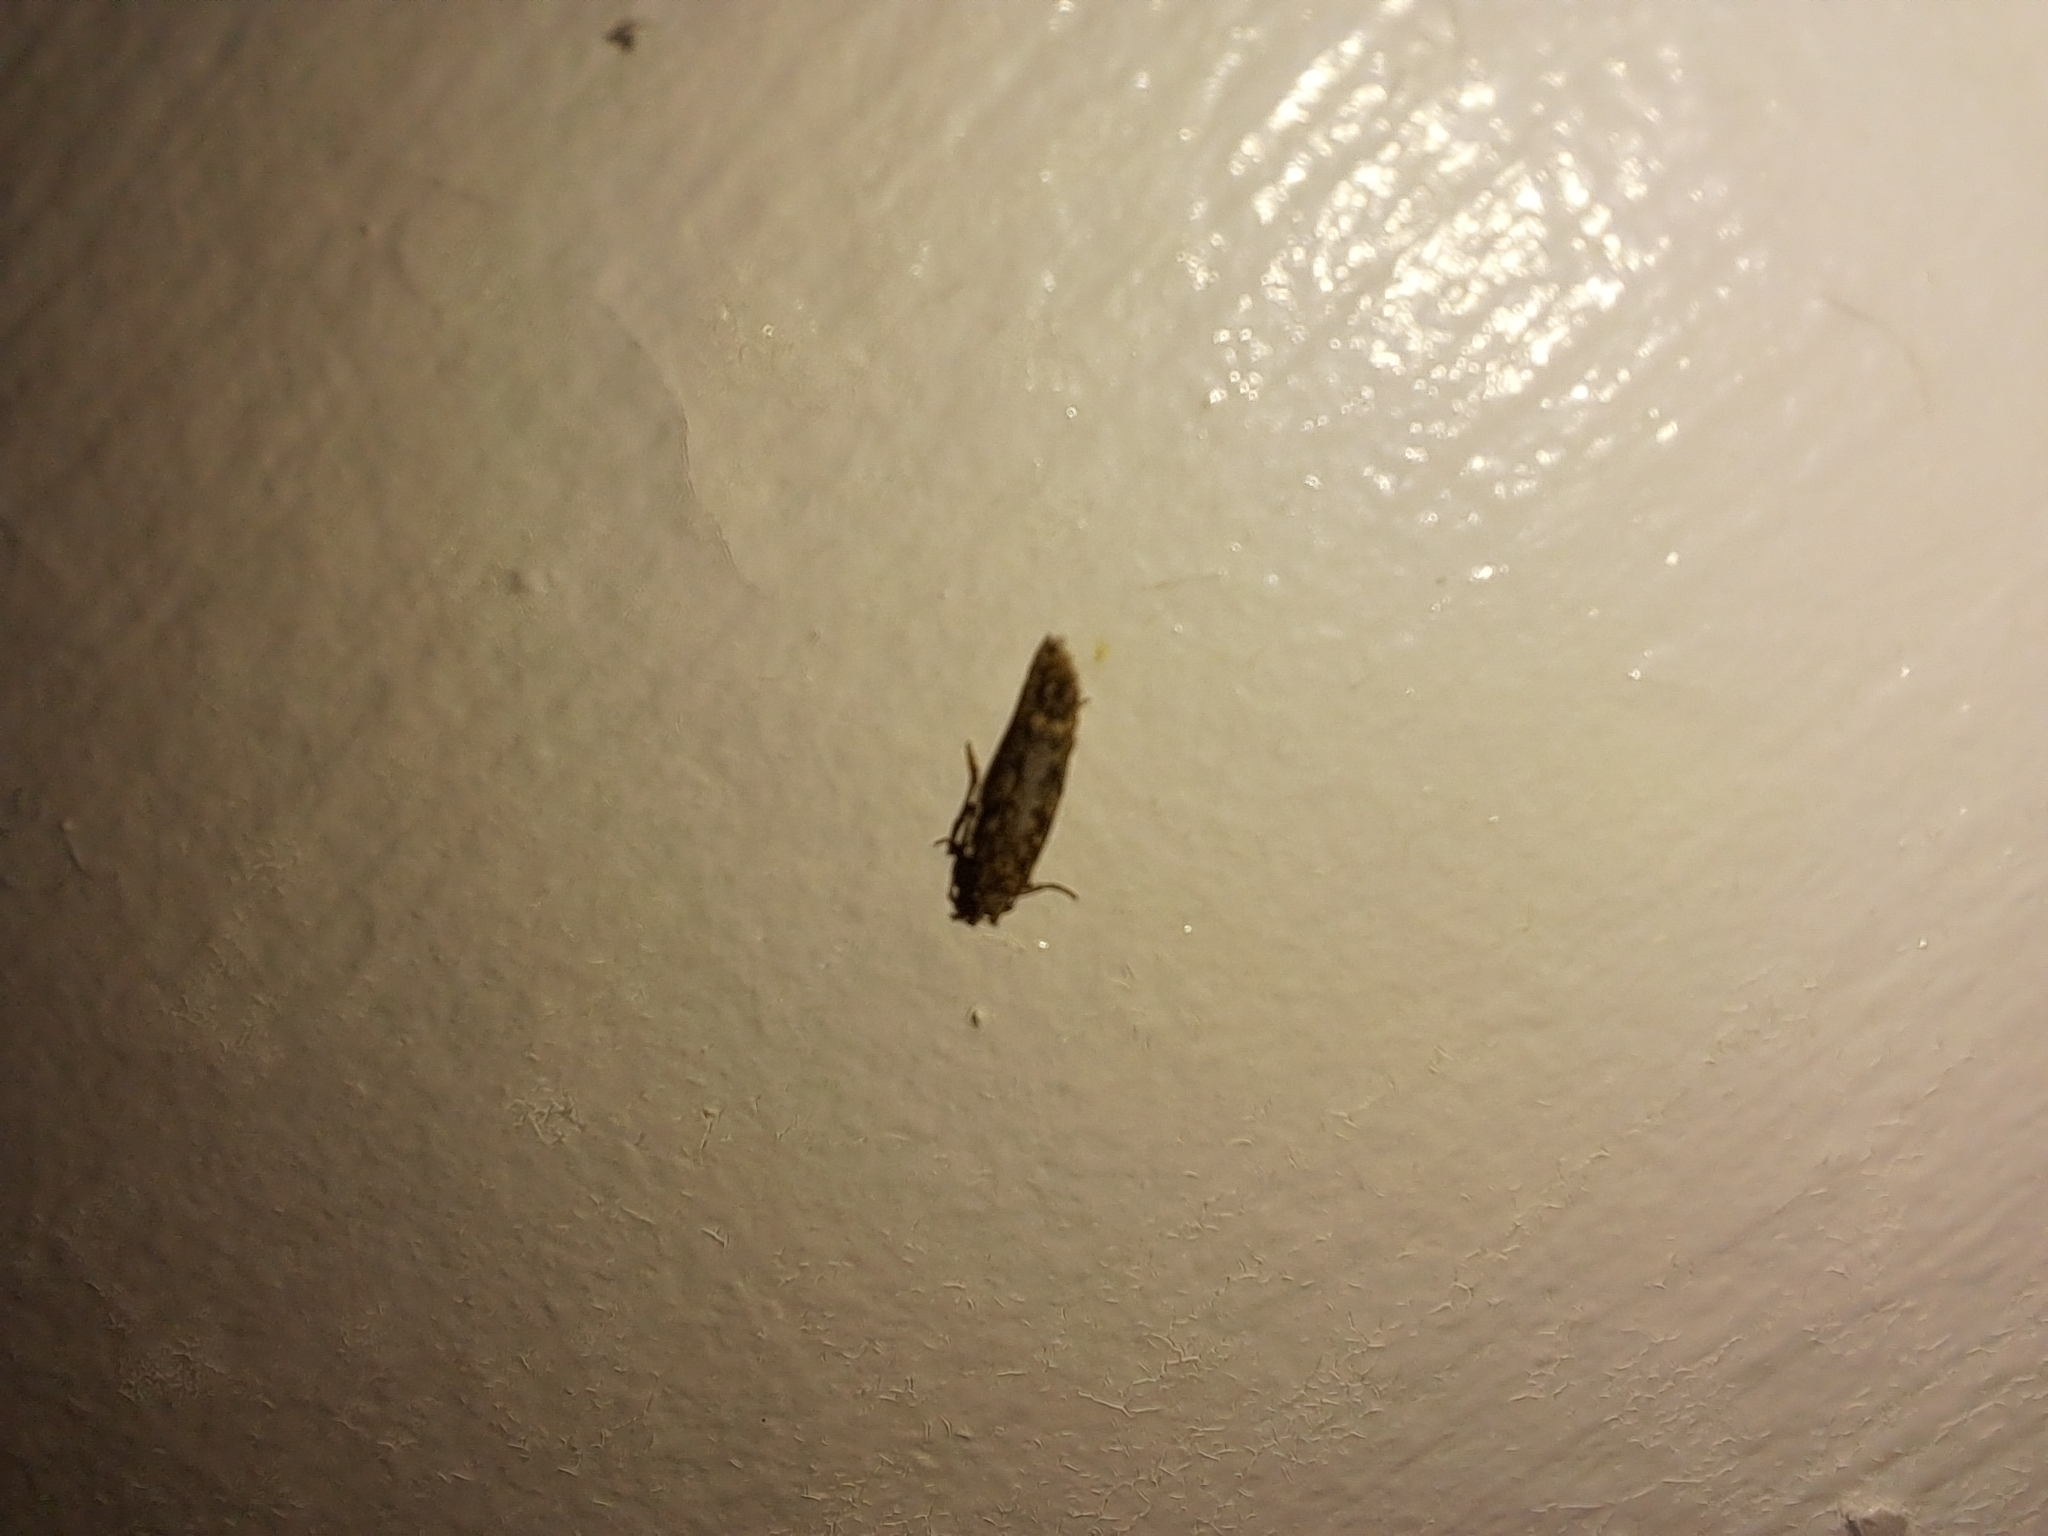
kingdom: Animalia
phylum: Arthropoda
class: Insecta
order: Lepidoptera
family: Tineidae
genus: Tineola
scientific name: Tineola bisselliella
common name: Webbing clothes moth
